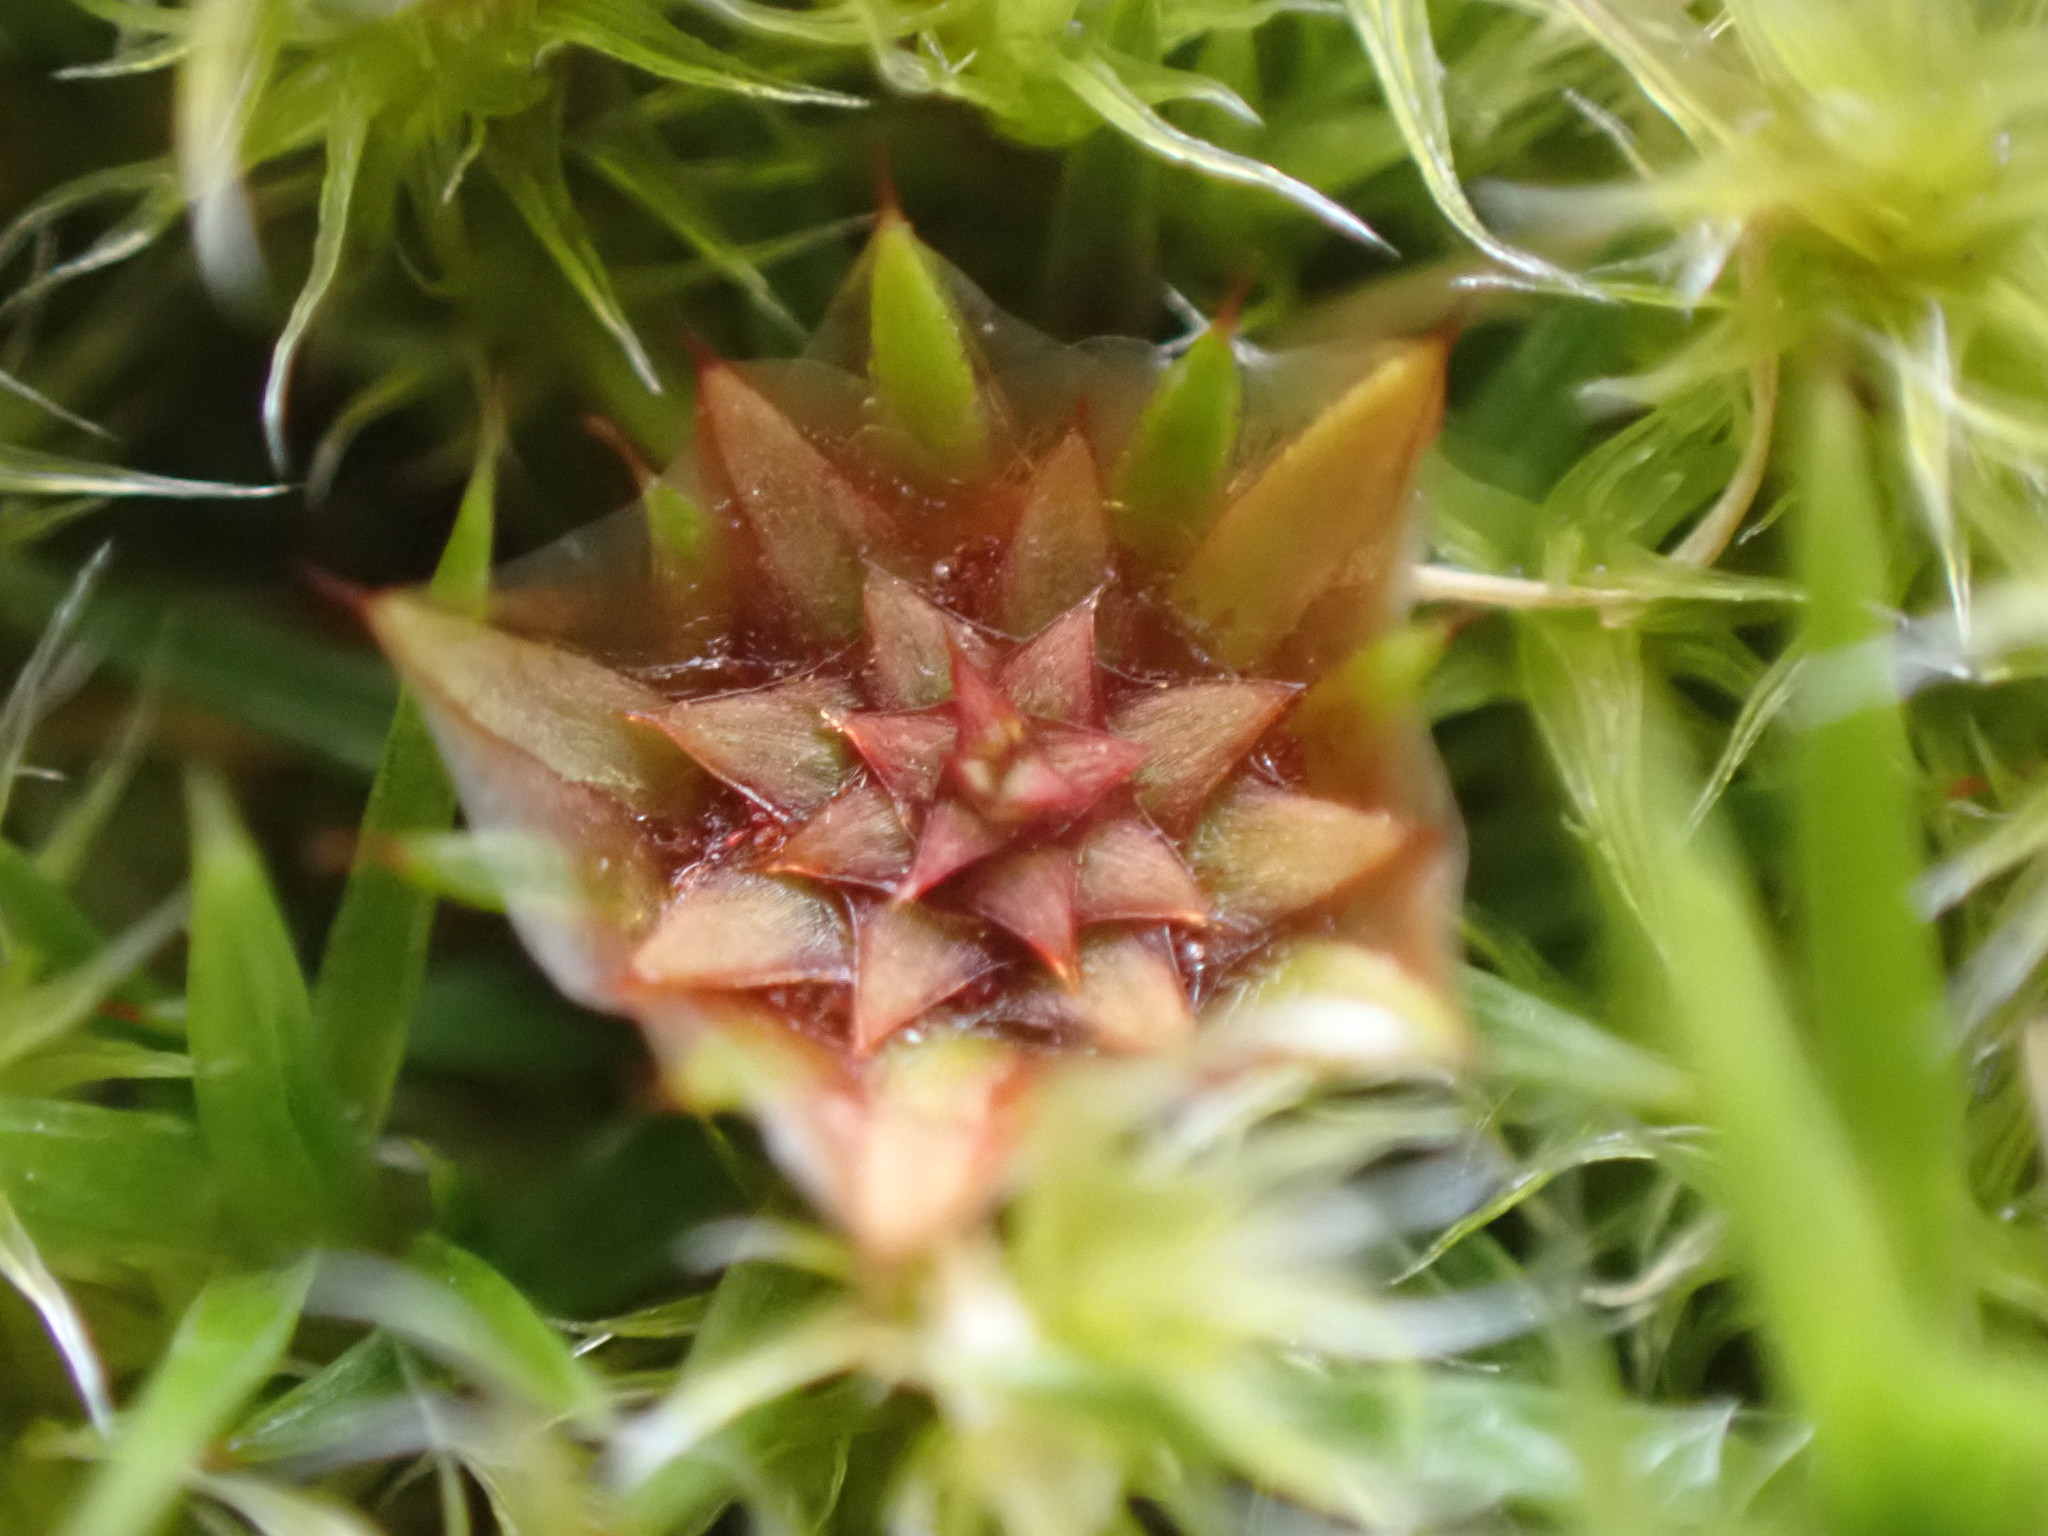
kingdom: Plantae
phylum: Bryophyta
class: Polytrichopsida
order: Polytrichales
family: Polytrichaceae
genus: Polytrichum
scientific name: Polytrichum juniperinum
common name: Juniper haircap moss
